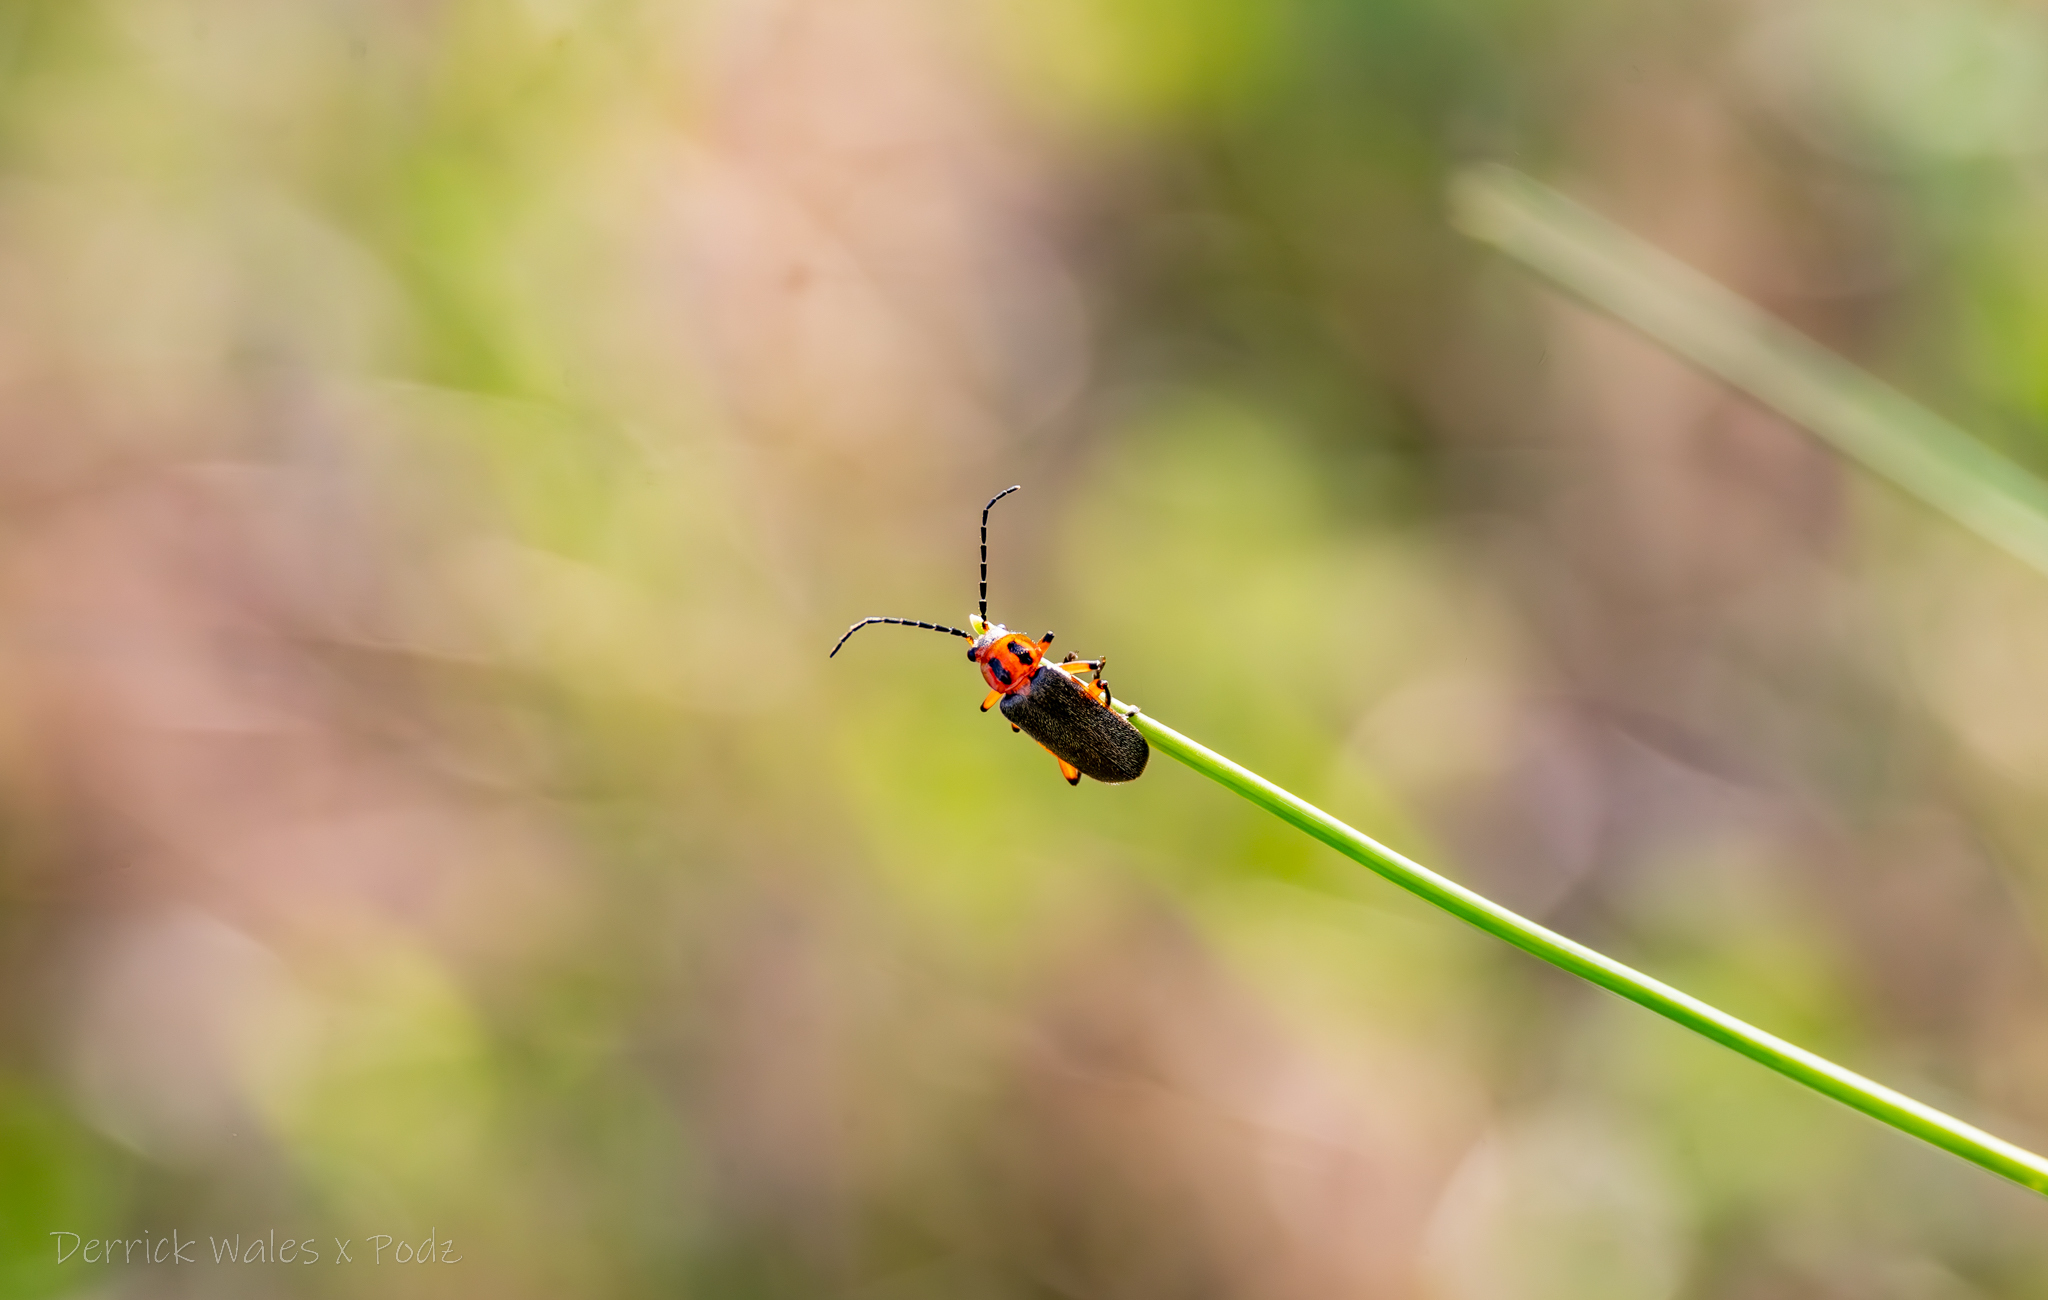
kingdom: Animalia
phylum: Arthropoda
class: Insecta
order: Coleoptera
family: Cantharidae
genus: Atalantycha
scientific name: Atalantycha bilineata
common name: Two-lined leatherwing
